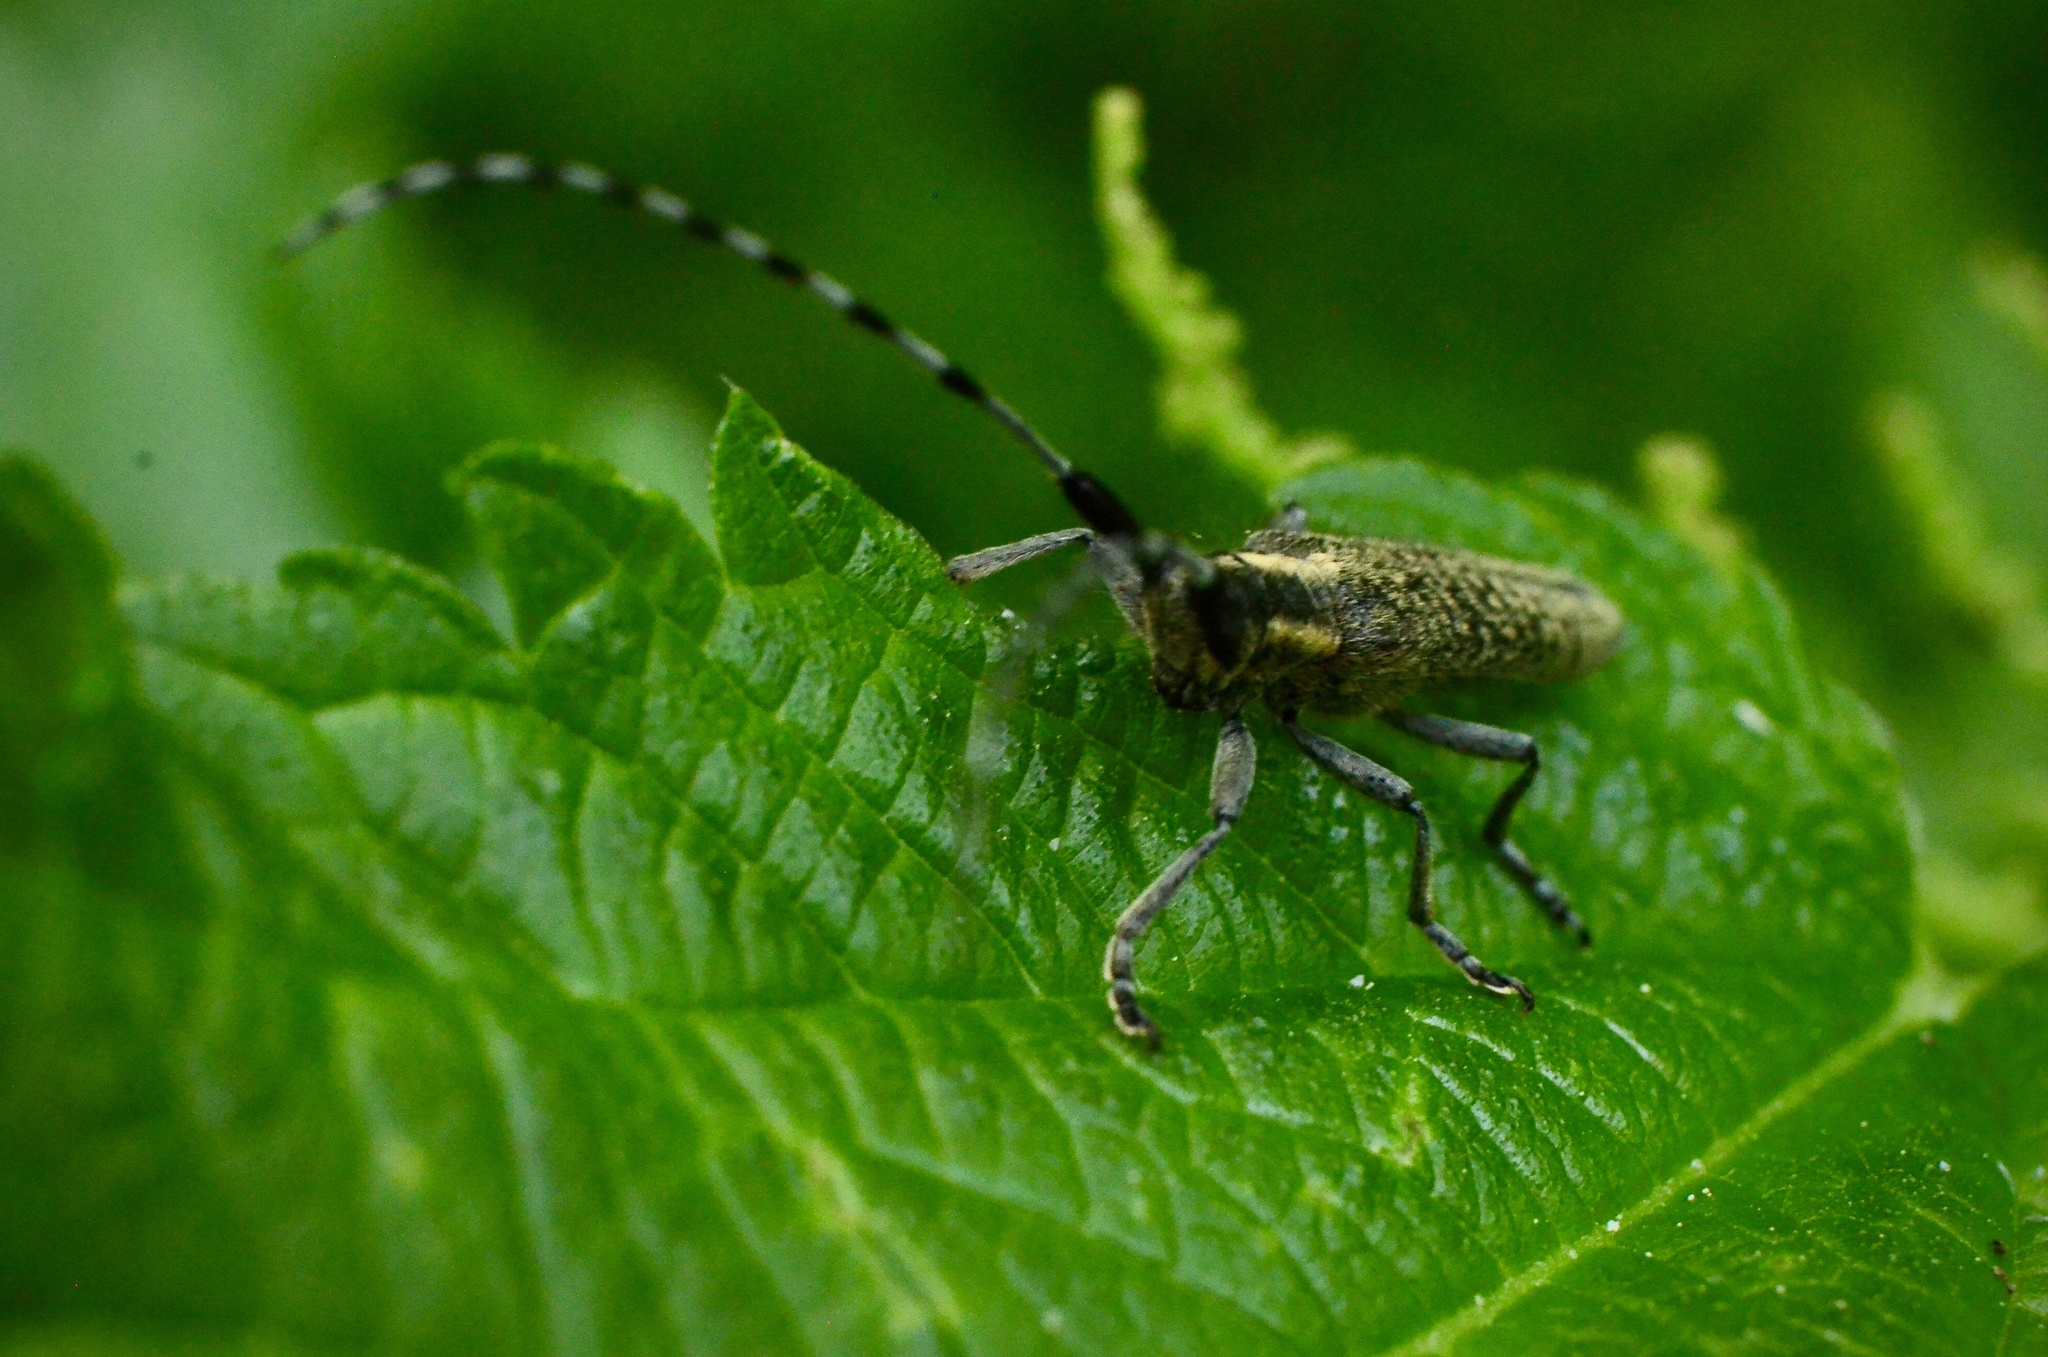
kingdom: Animalia
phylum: Arthropoda
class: Insecta
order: Coleoptera
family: Cerambycidae
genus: Agapanthia
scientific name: Agapanthia villosoviridescens
